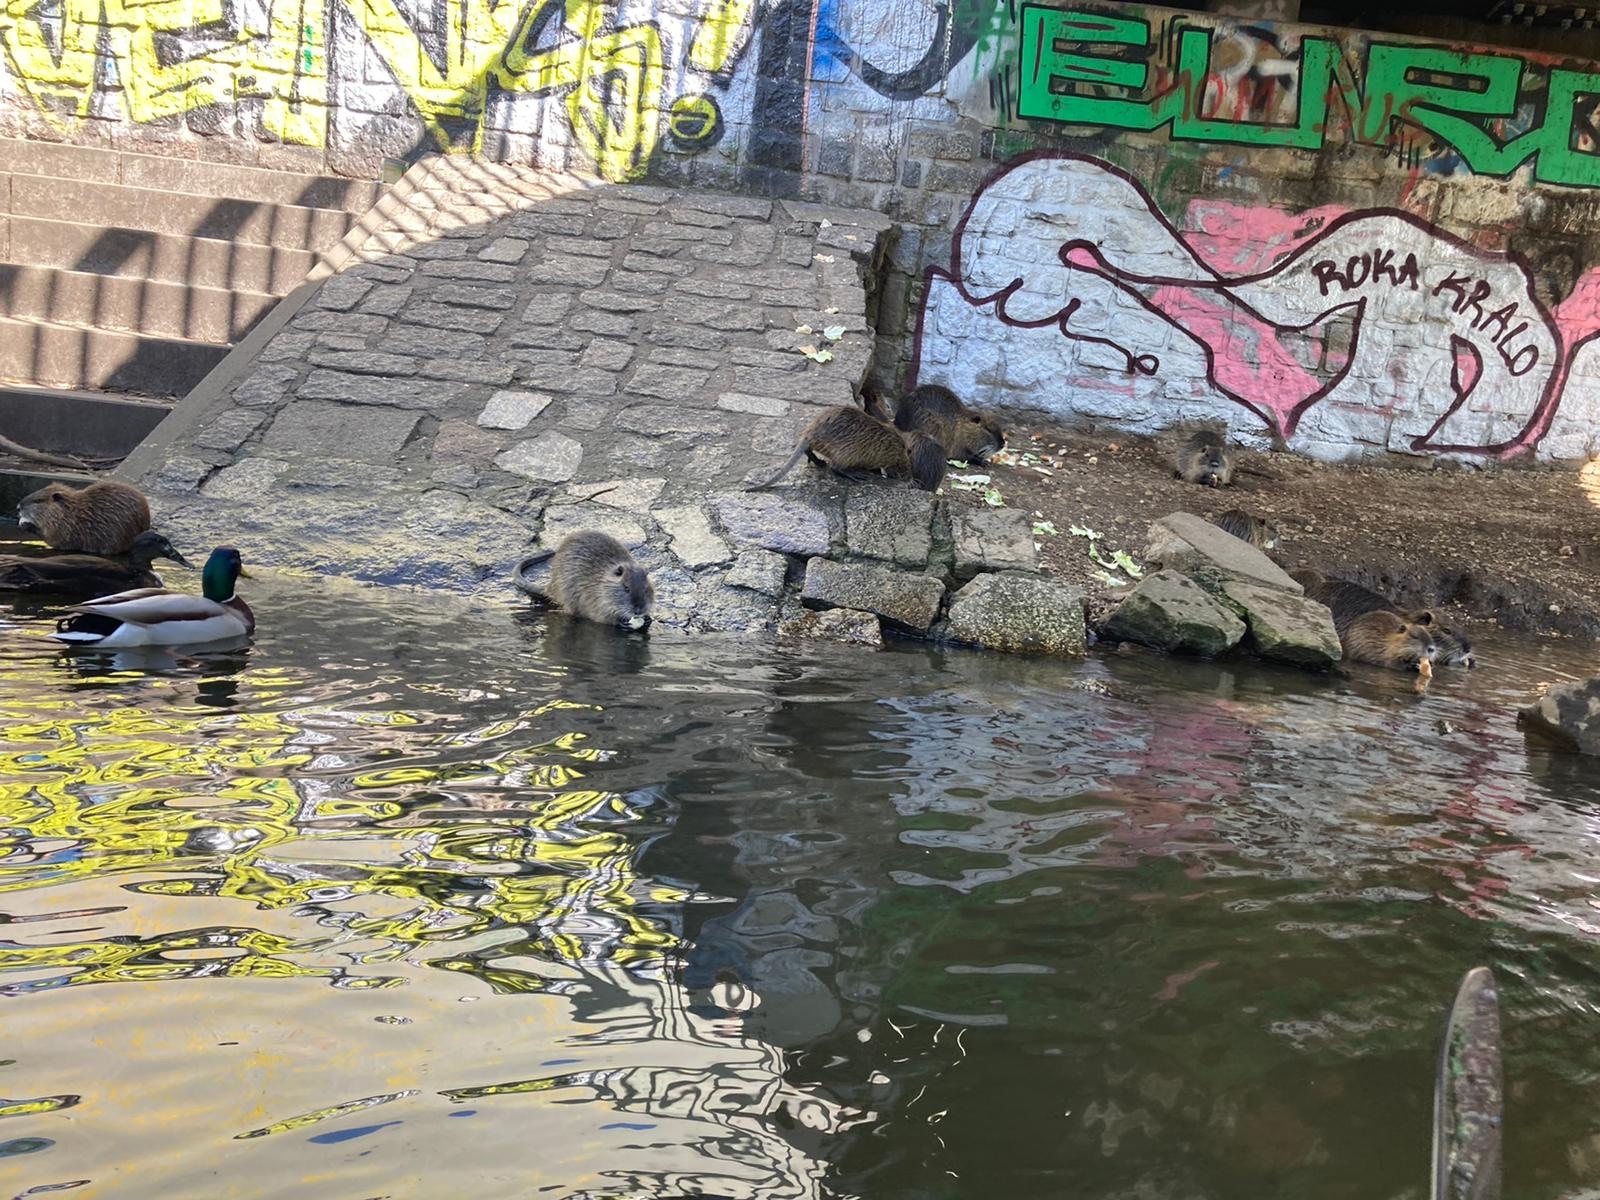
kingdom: Animalia
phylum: Chordata
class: Mammalia
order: Rodentia
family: Myocastoridae
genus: Myocastor
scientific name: Myocastor coypus
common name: Coypu
